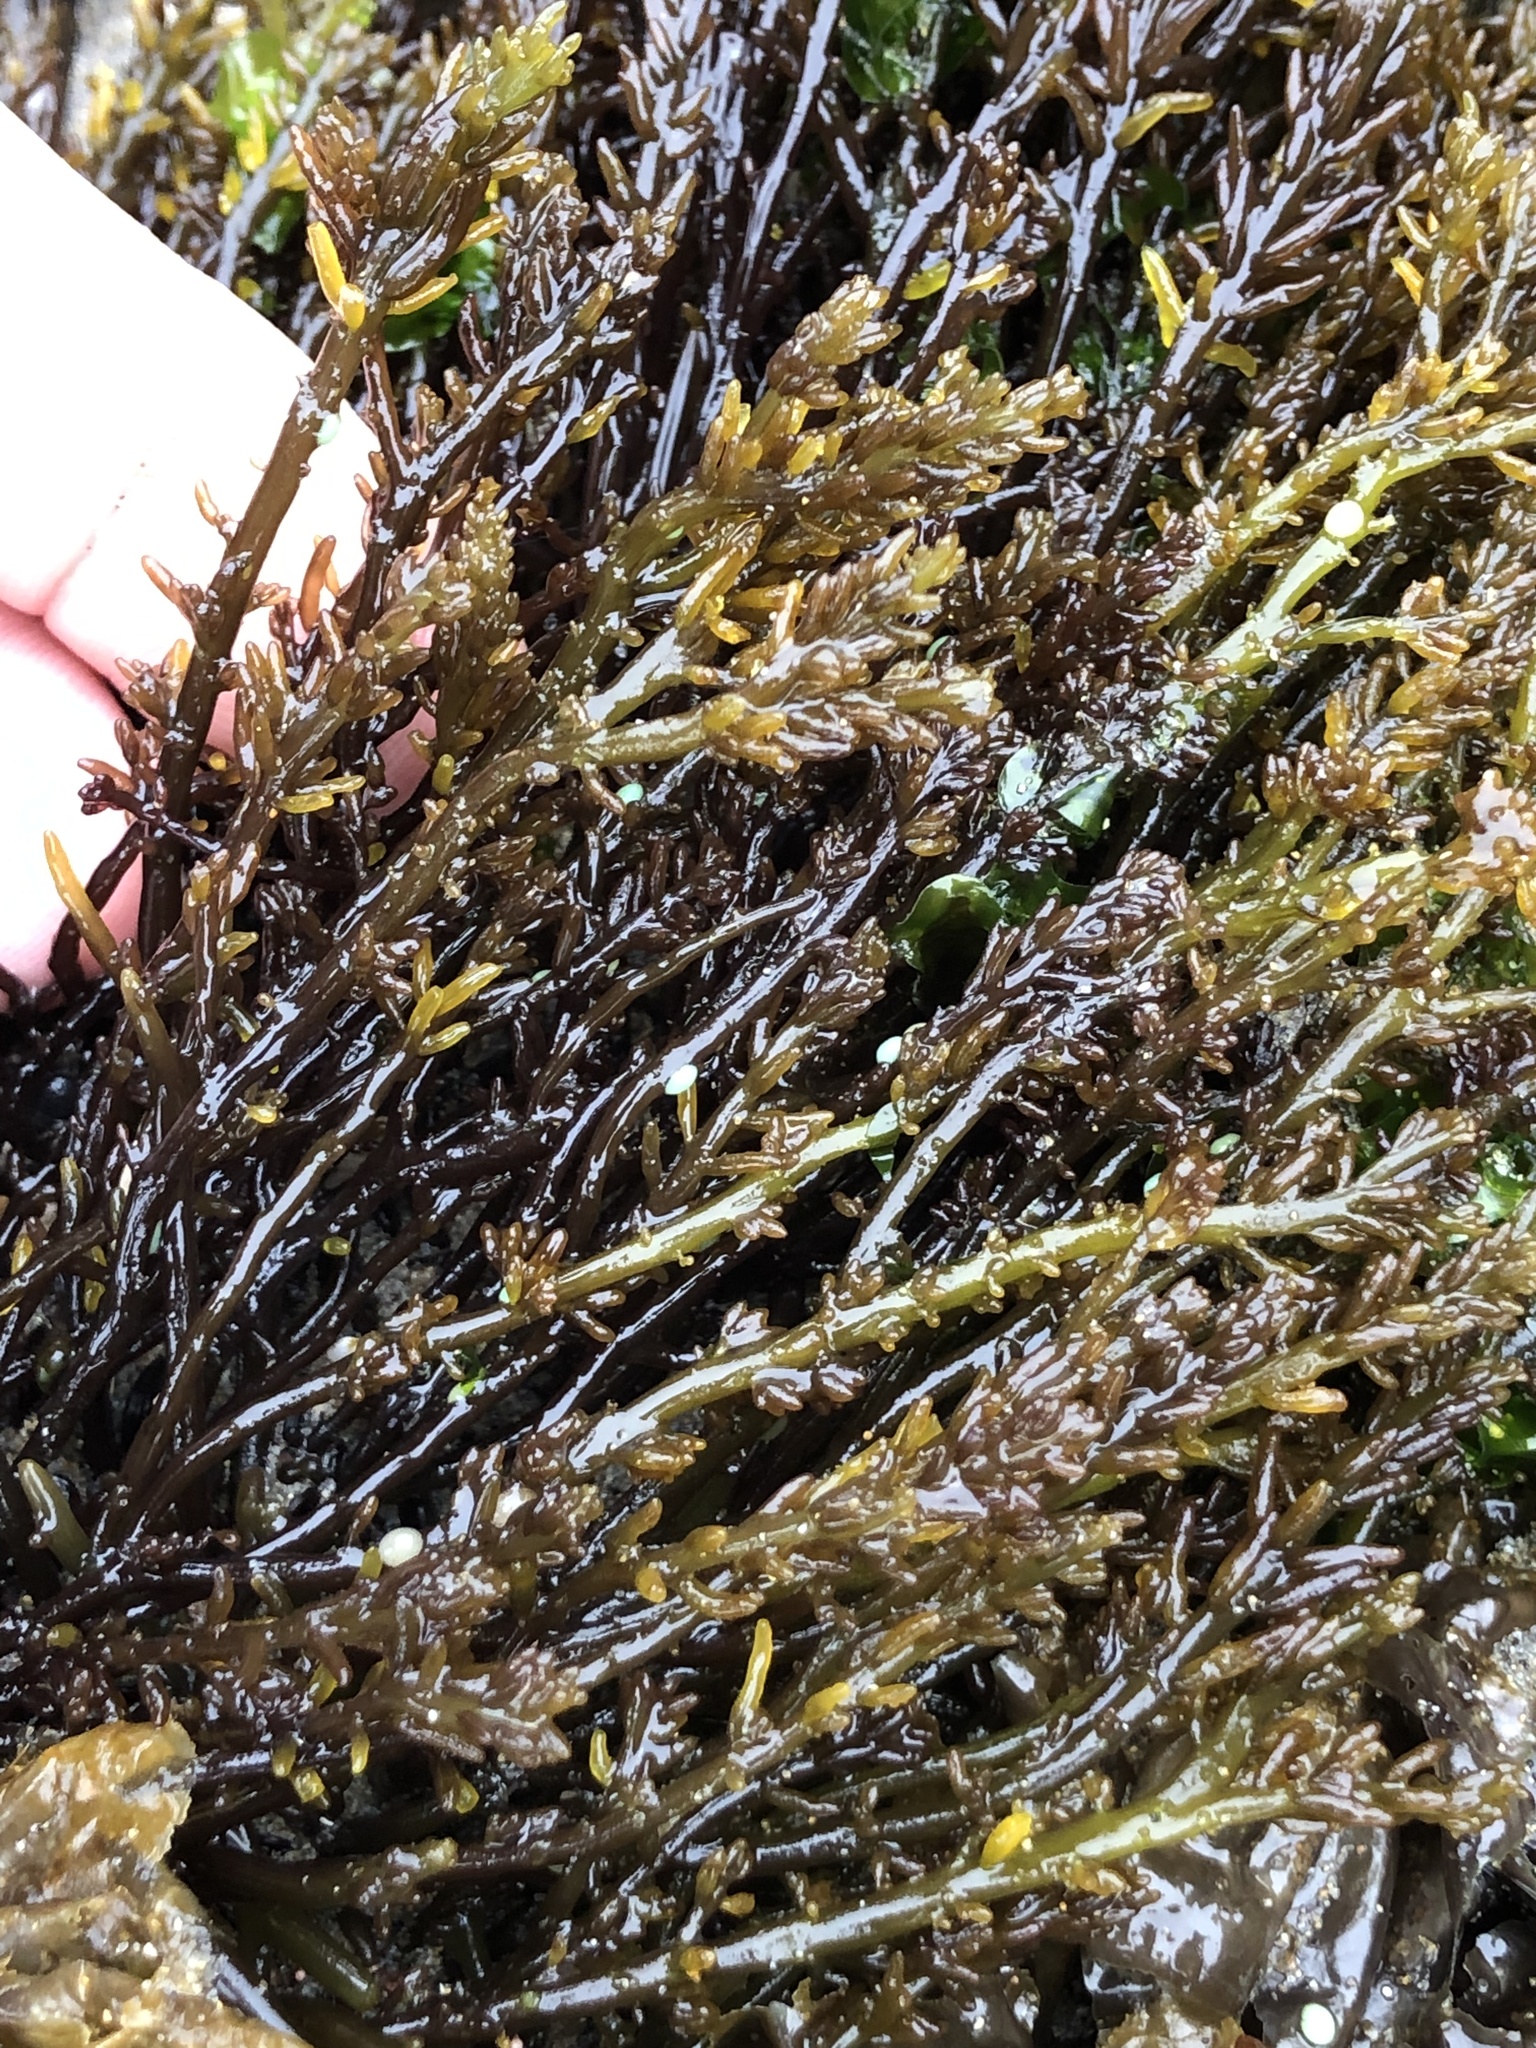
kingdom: Plantae
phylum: Rhodophyta
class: Florideophyceae
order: Rhodymeniales
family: Champiaceae
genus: Neogastroclonium
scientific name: Neogastroclonium subarticulatum
